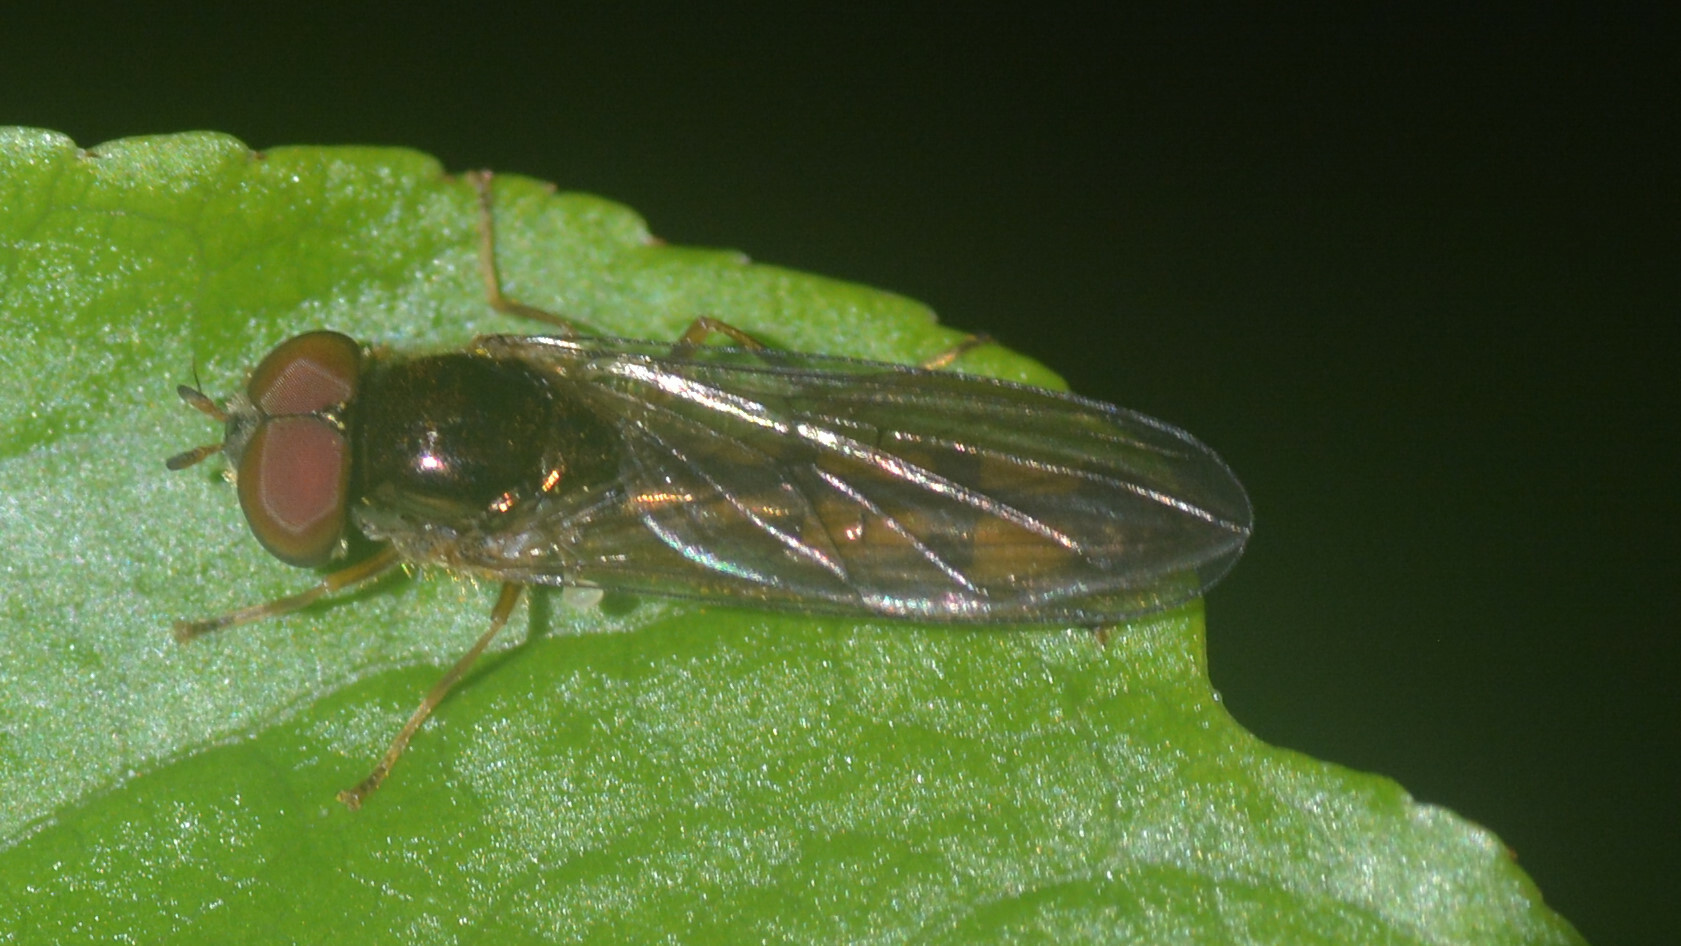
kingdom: Animalia
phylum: Arthropoda
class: Insecta
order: Diptera
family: Syrphidae
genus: Melanostoma
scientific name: Melanostoma scalare
